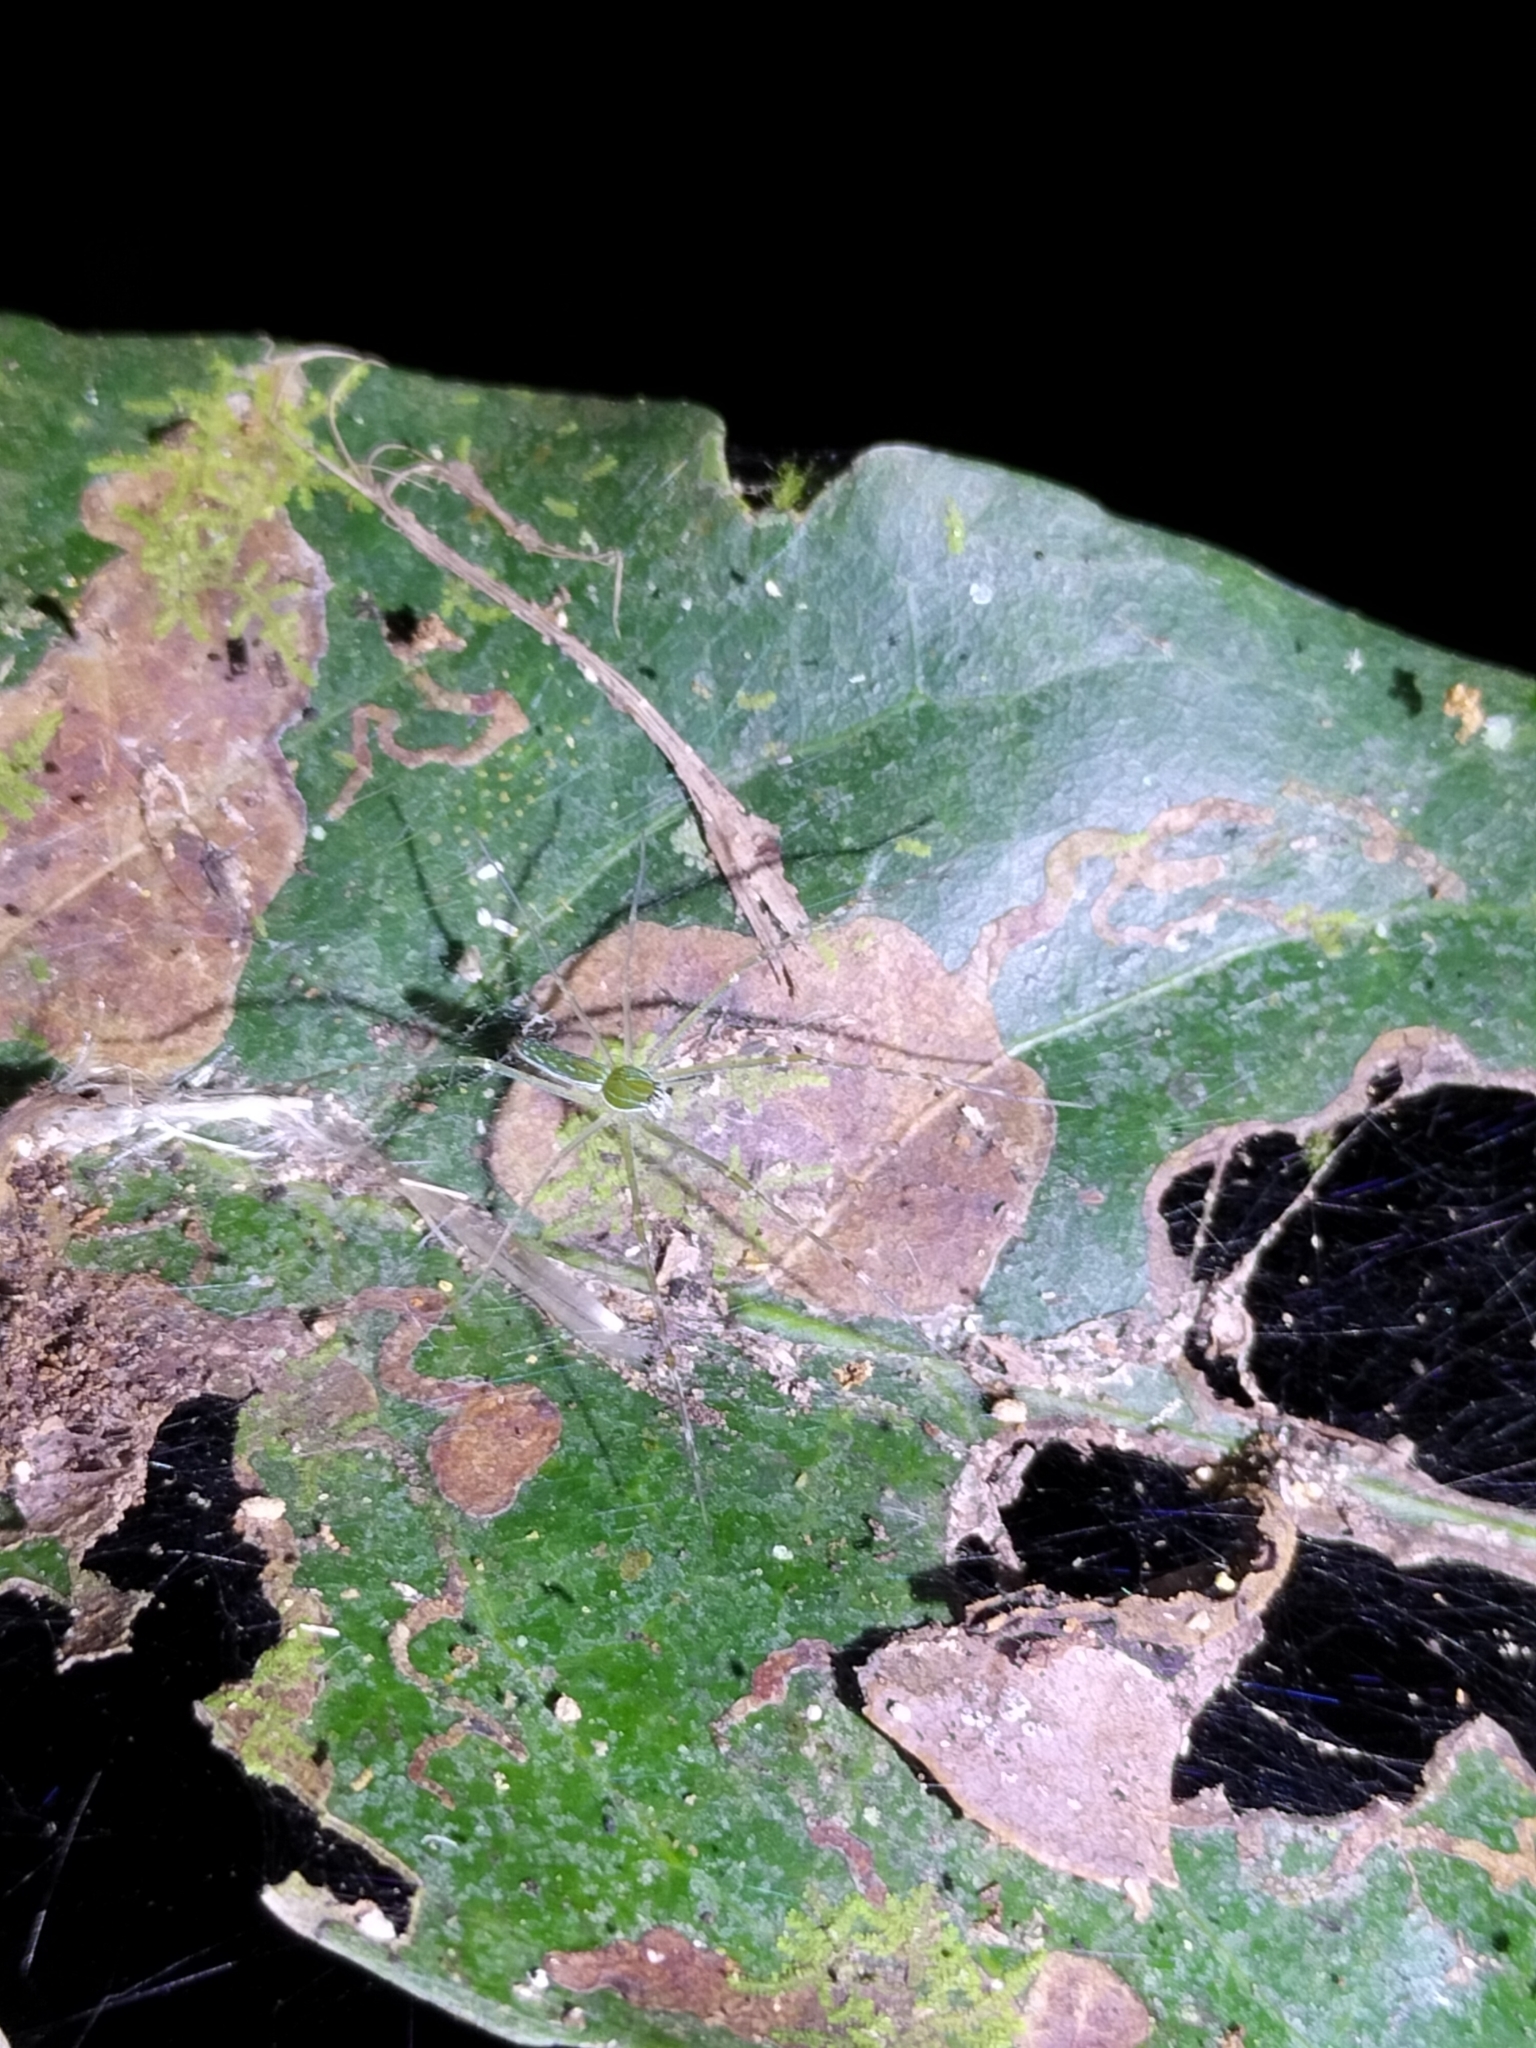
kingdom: Animalia
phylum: Arthropoda
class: Arachnida
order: Araneae
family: Pisauridae
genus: Hygropoda
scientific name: Hygropoda lineata
